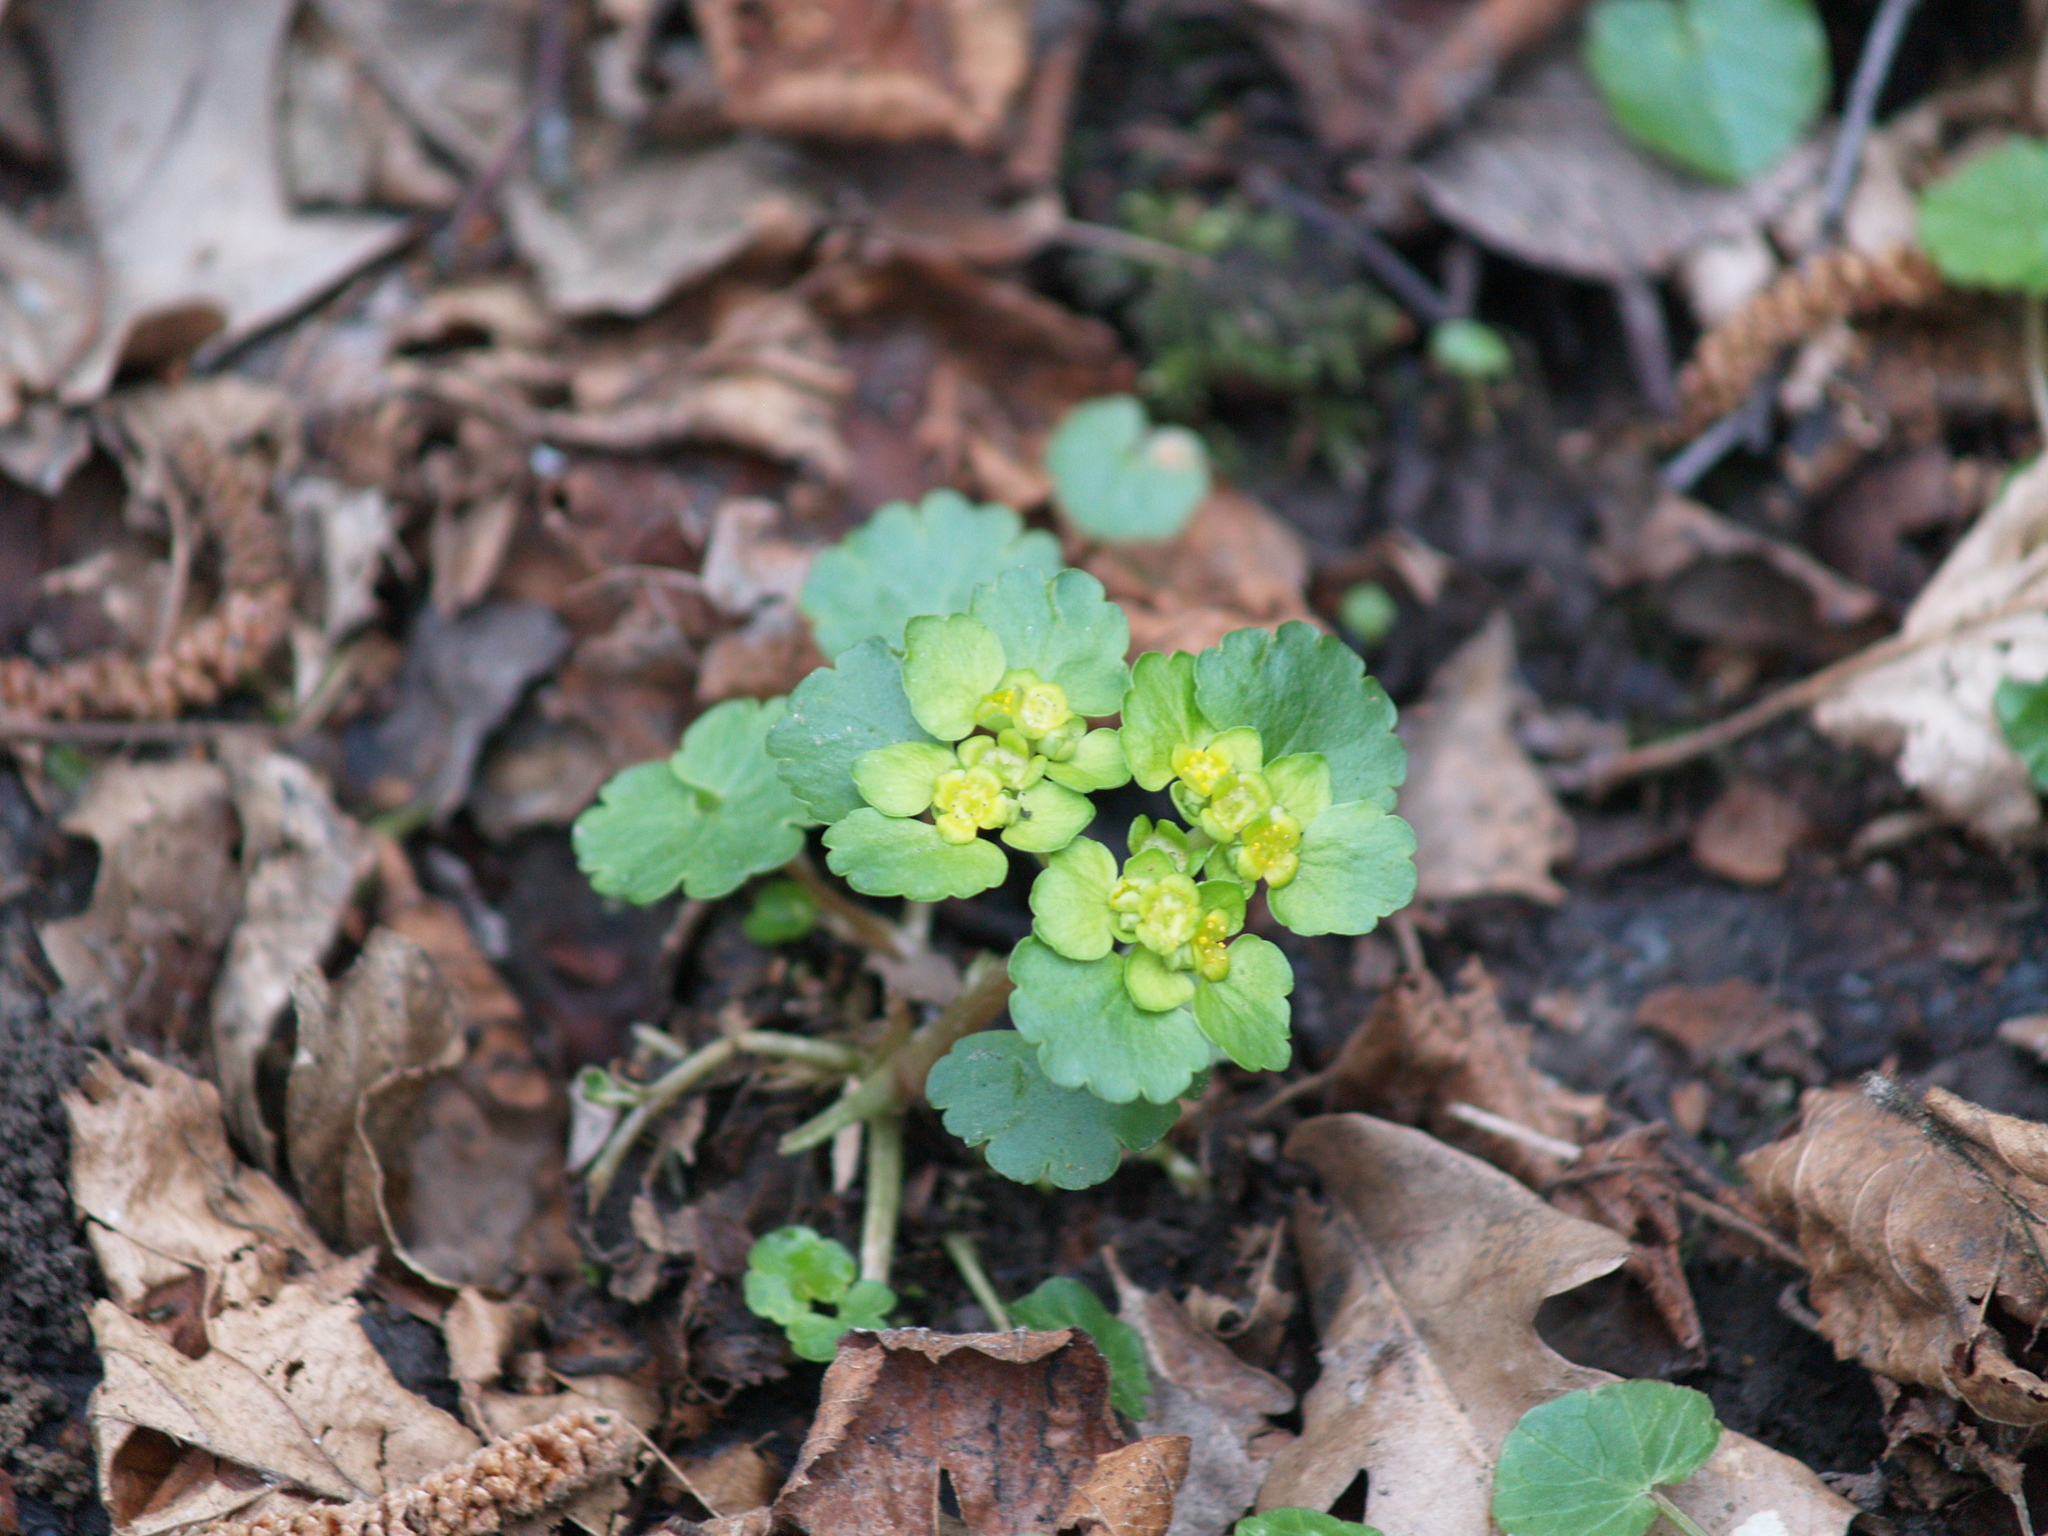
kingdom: Plantae
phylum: Tracheophyta
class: Magnoliopsida
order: Saxifragales
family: Saxifragaceae
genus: Chrysosplenium
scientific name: Chrysosplenium alternifolium
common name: Alternate-leaved golden-saxifrage
